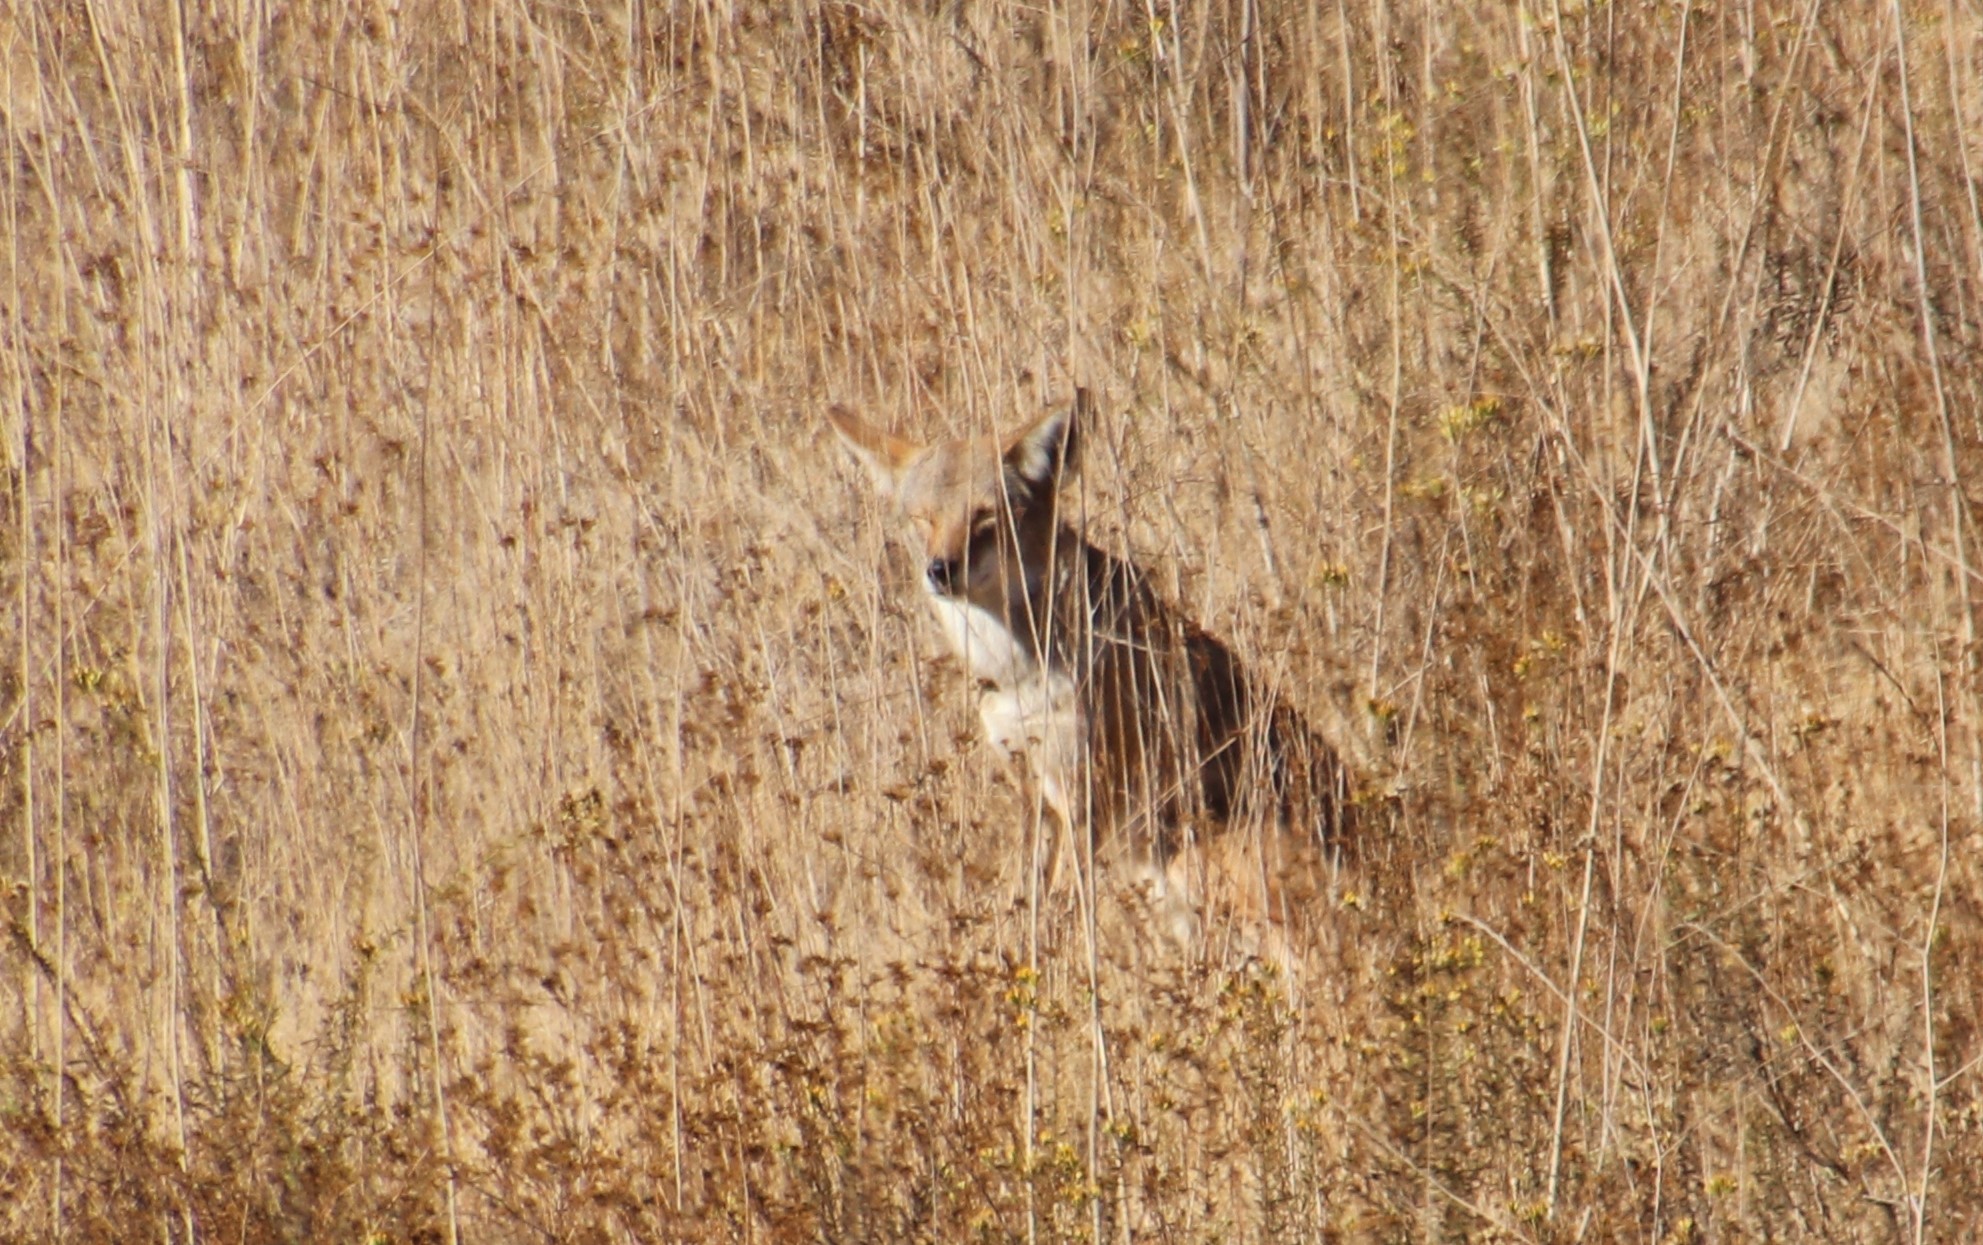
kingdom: Animalia
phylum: Chordata
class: Mammalia
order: Carnivora
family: Canidae
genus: Canis
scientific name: Canis latrans
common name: Coyote
